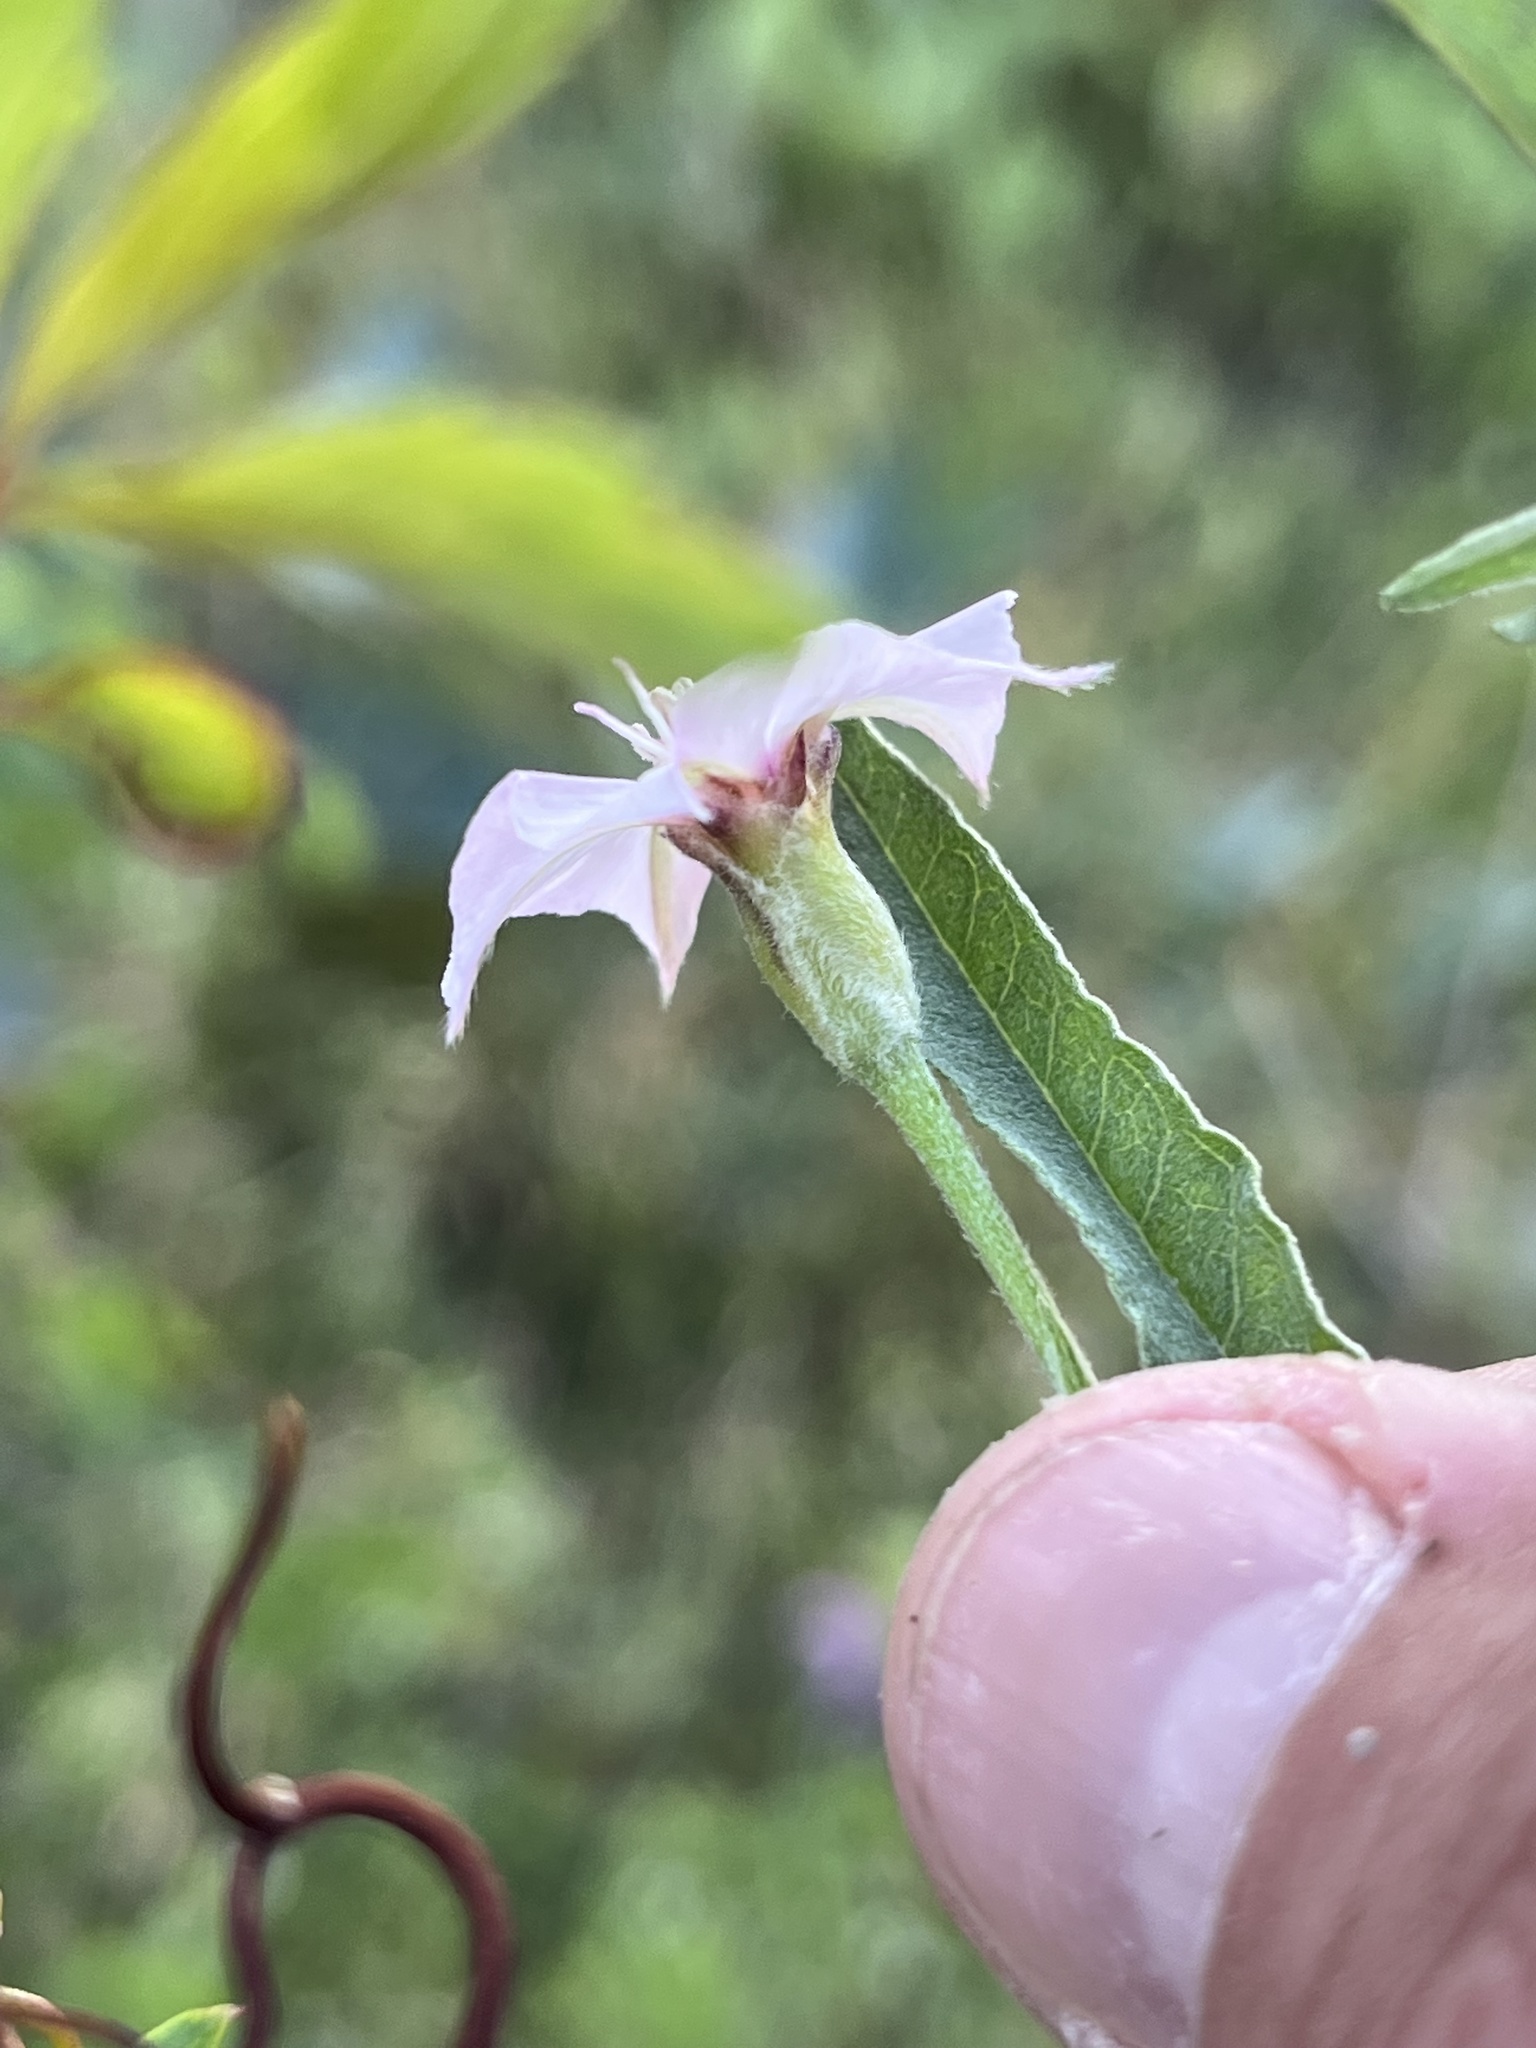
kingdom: Plantae
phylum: Tracheophyta
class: Magnoliopsida
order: Solanales
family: Convolvulaceae
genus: Convolvulus
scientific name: Convolvulus equitans
